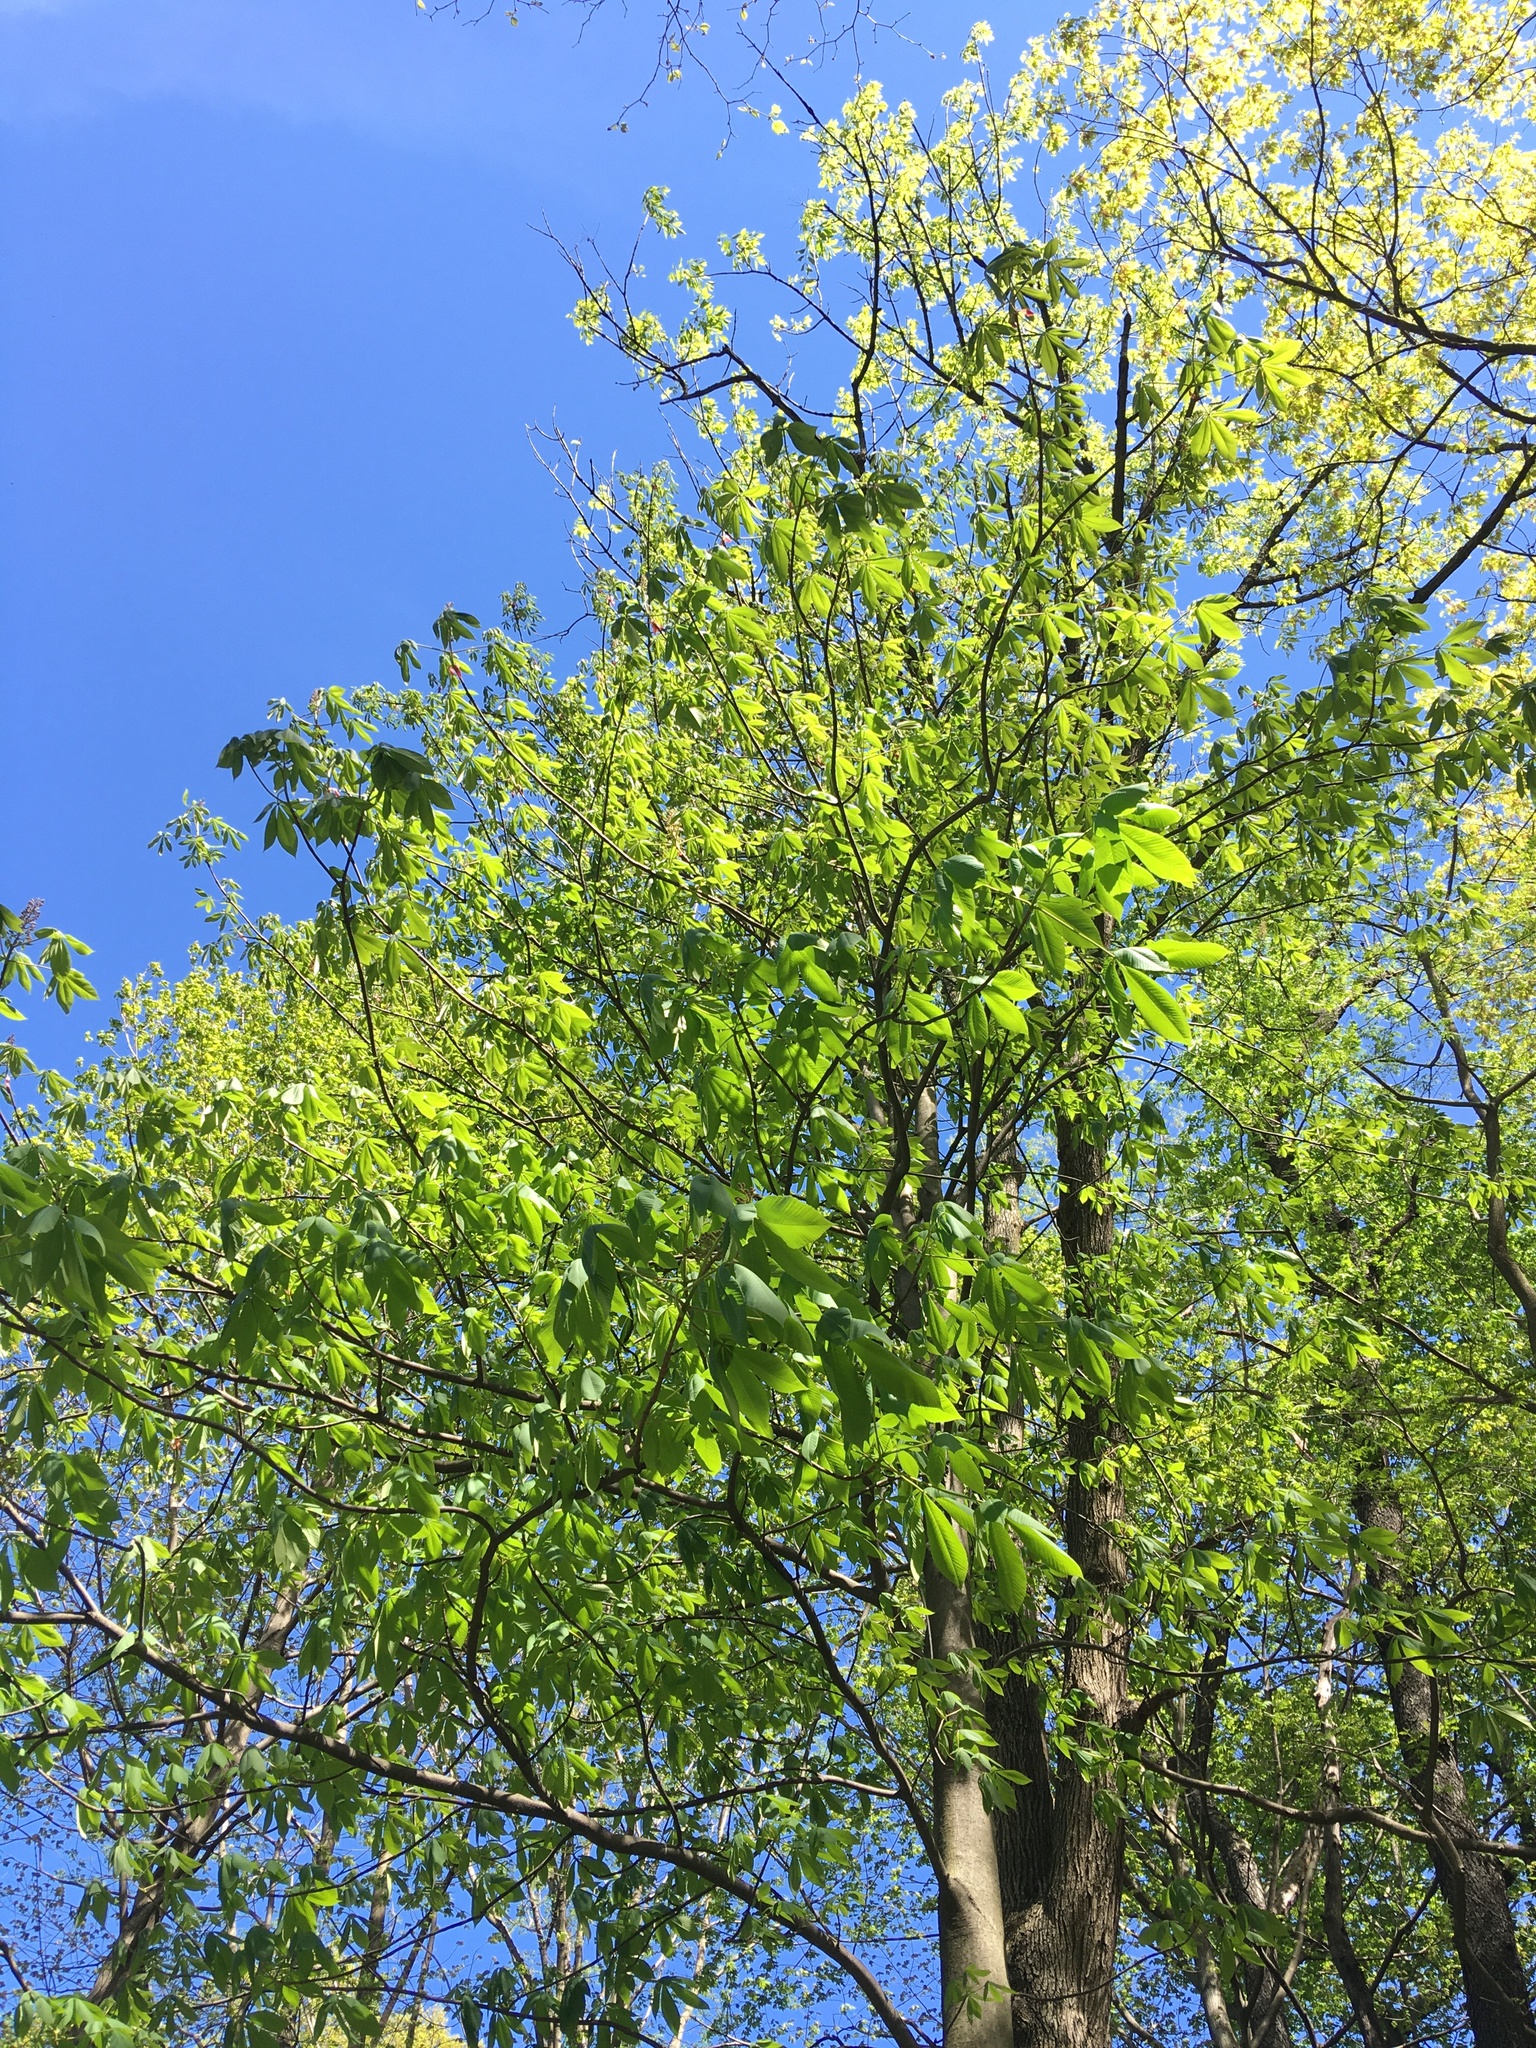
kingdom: Plantae
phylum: Tracheophyta
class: Magnoliopsida
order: Sapindales
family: Sapindaceae
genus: Aesculus
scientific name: Aesculus flava
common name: Yellow buckeye
